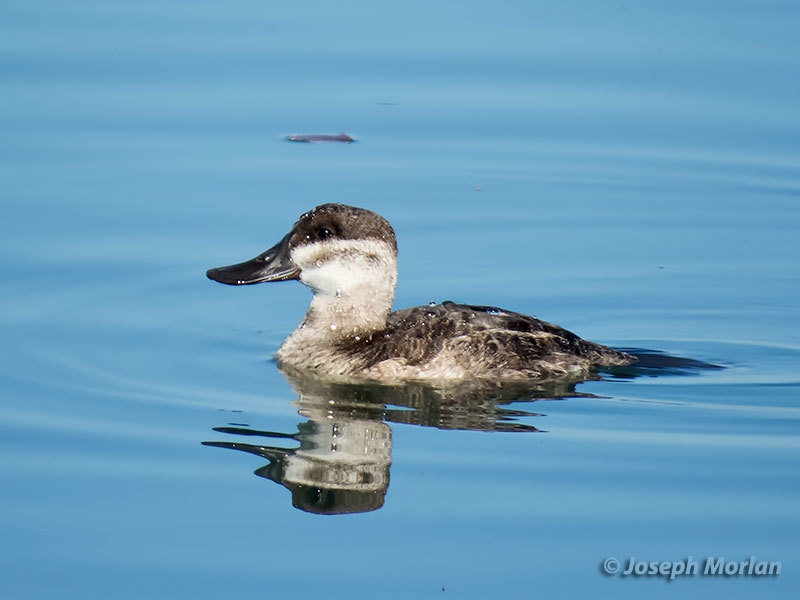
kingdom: Animalia
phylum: Chordata
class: Aves
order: Anseriformes
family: Anatidae
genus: Oxyura
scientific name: Oxyura jamaicensis
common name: Ruddy duck
